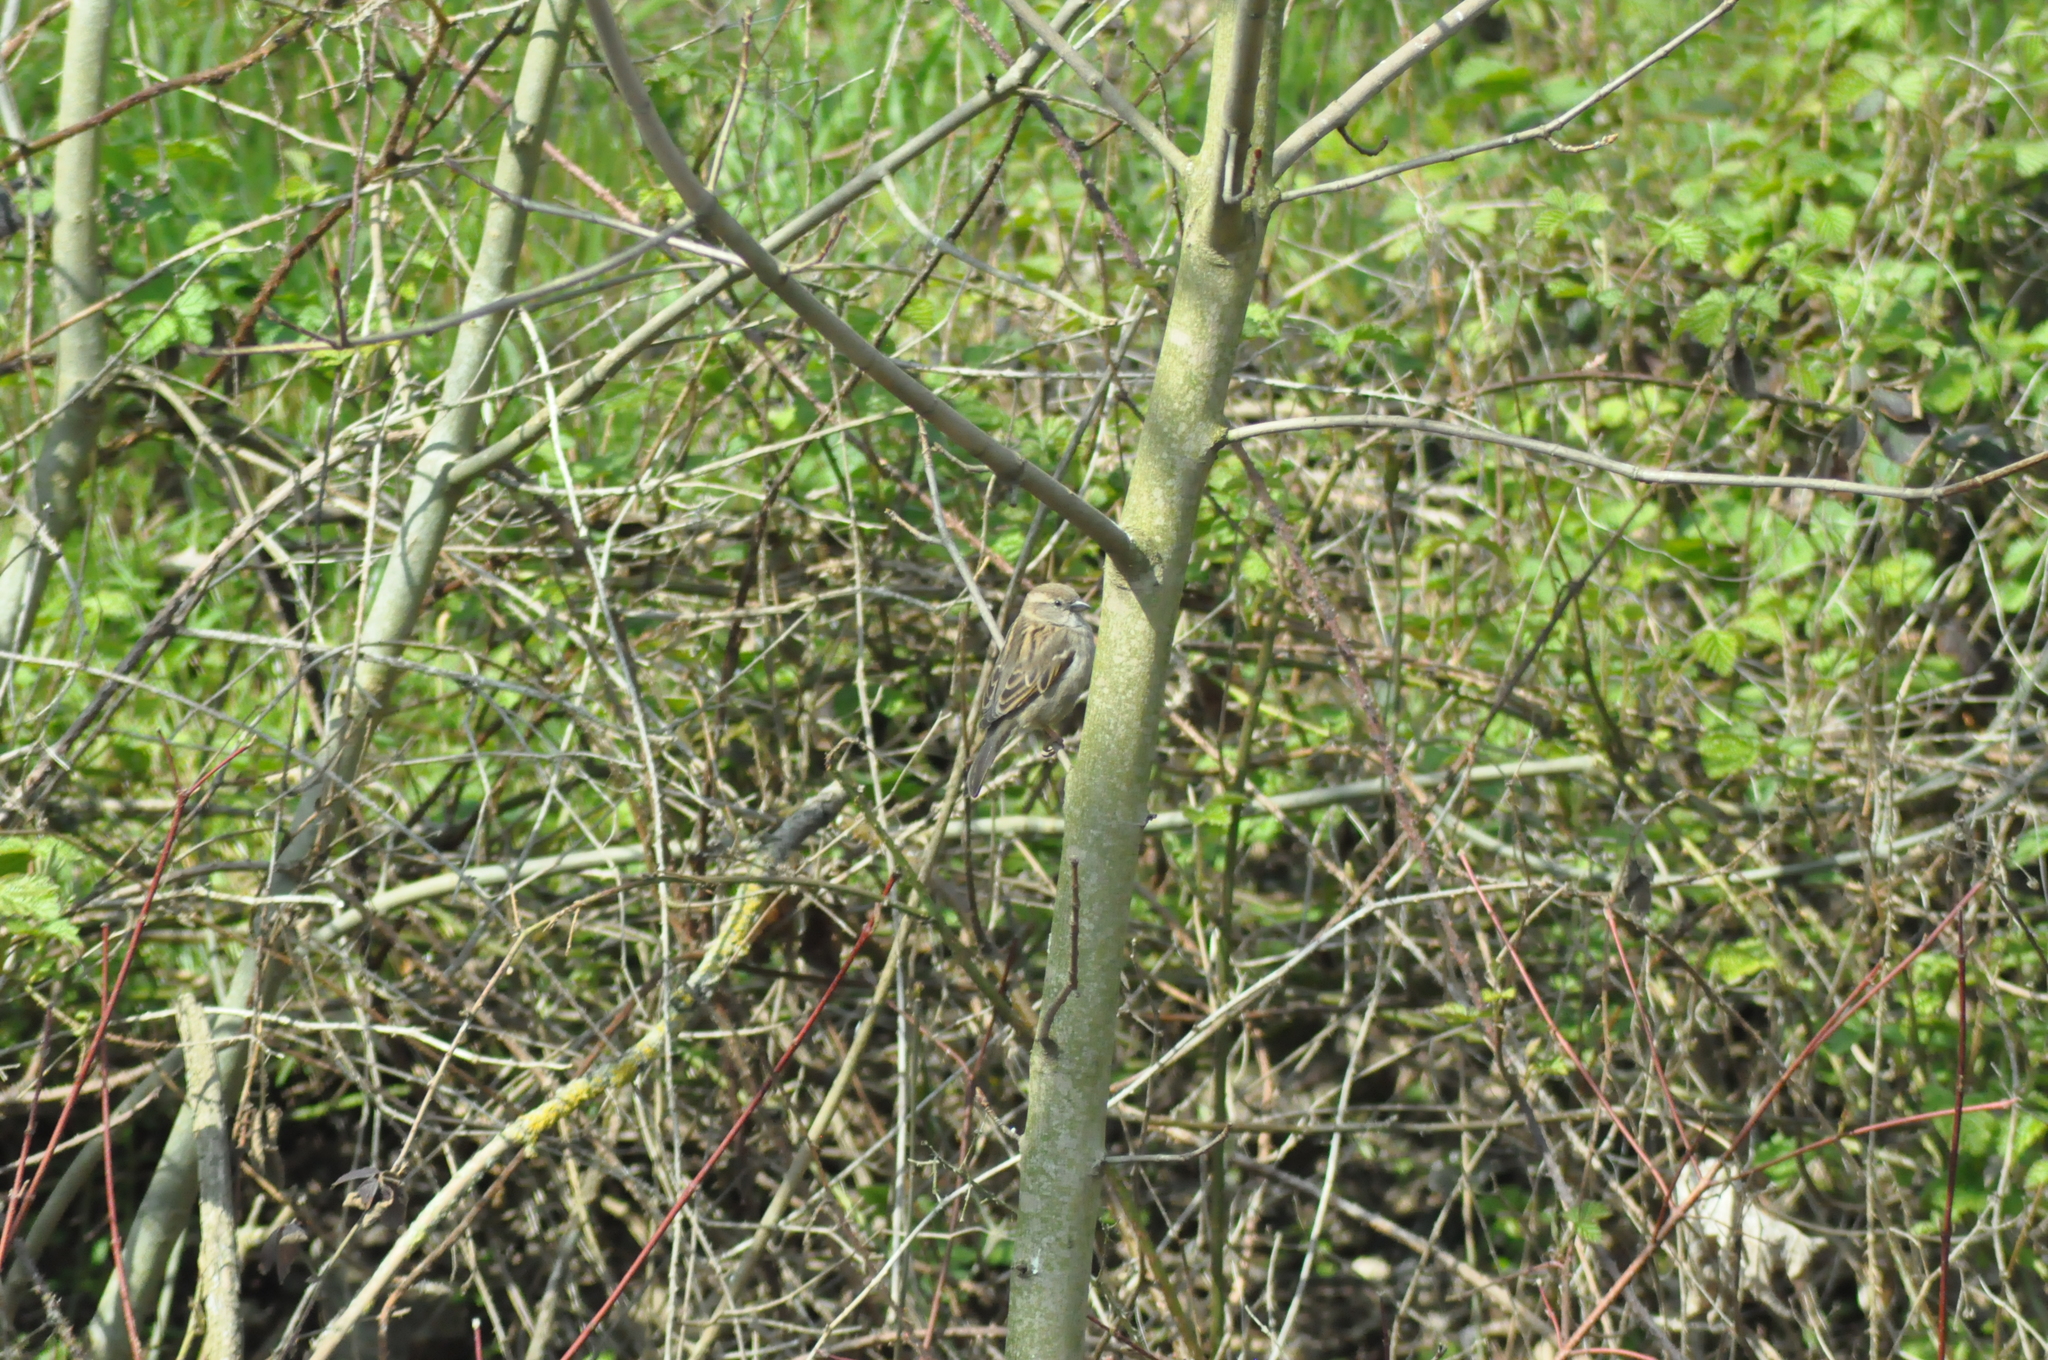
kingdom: Animalia
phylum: Chordata
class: Aves
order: Passeriformes
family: Passeridae
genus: Passer
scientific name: Passer domesticus
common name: House sparrow
